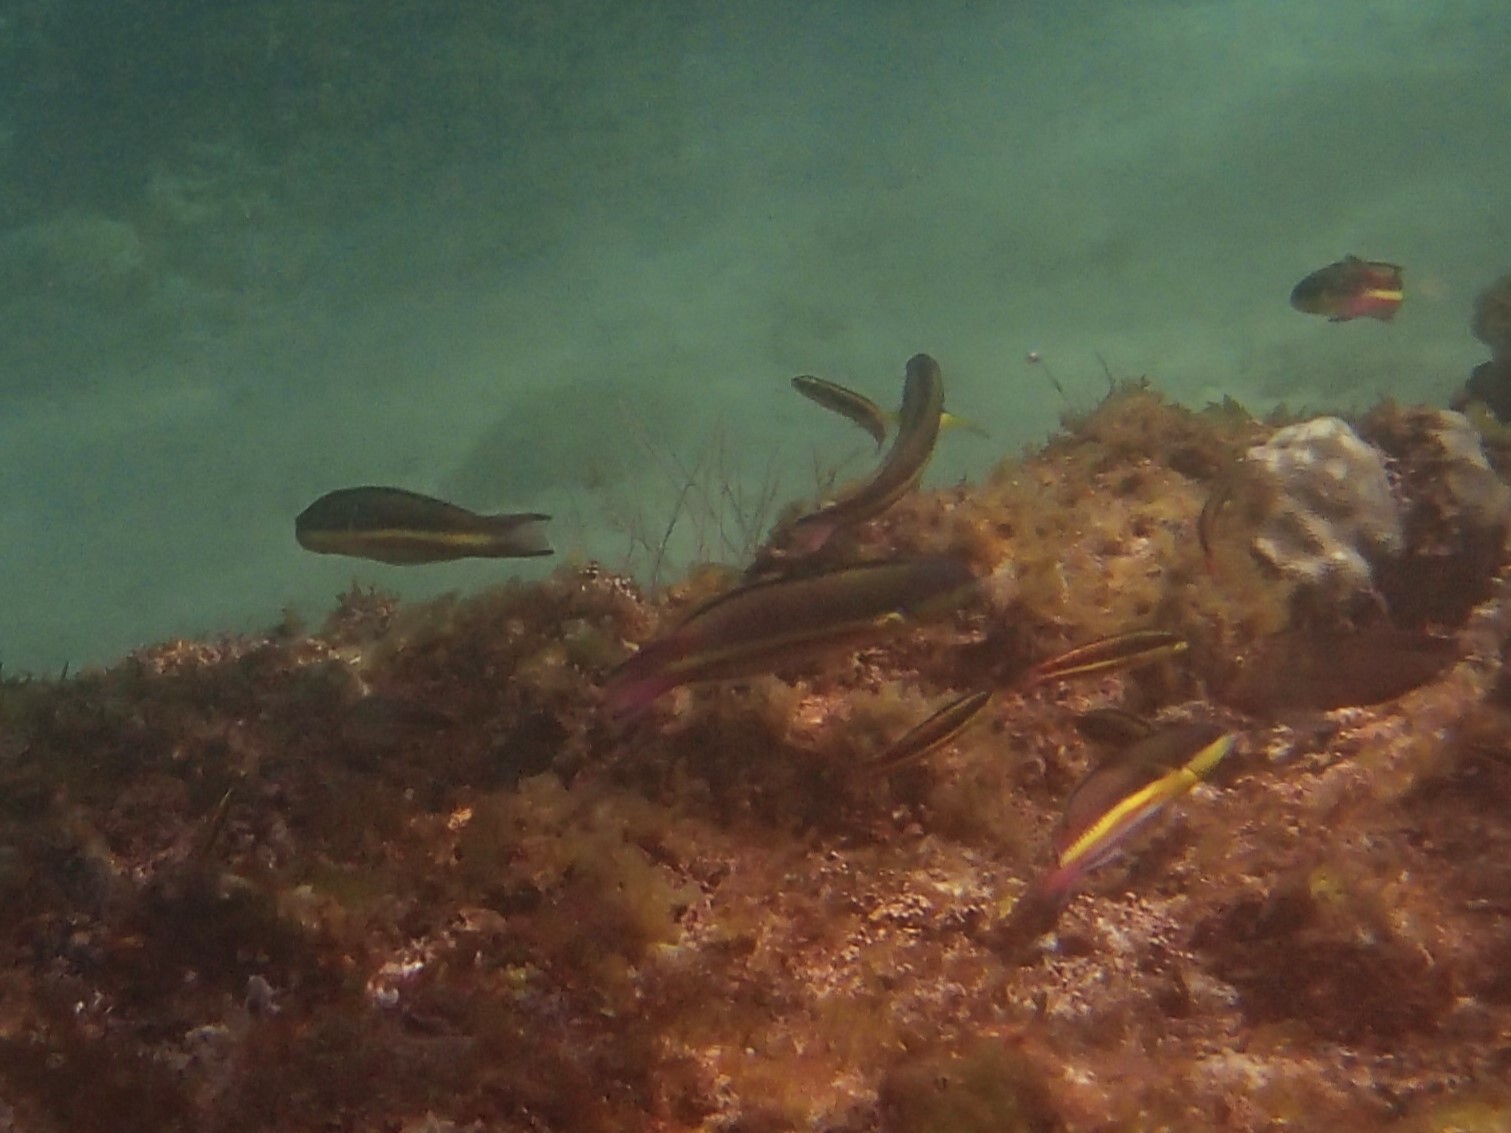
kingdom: Animalia
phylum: Chordata
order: Perciformes
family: Labridae
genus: Thalassoma
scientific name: Thalassoma lucasanum
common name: Cortez rainbow wrasse
